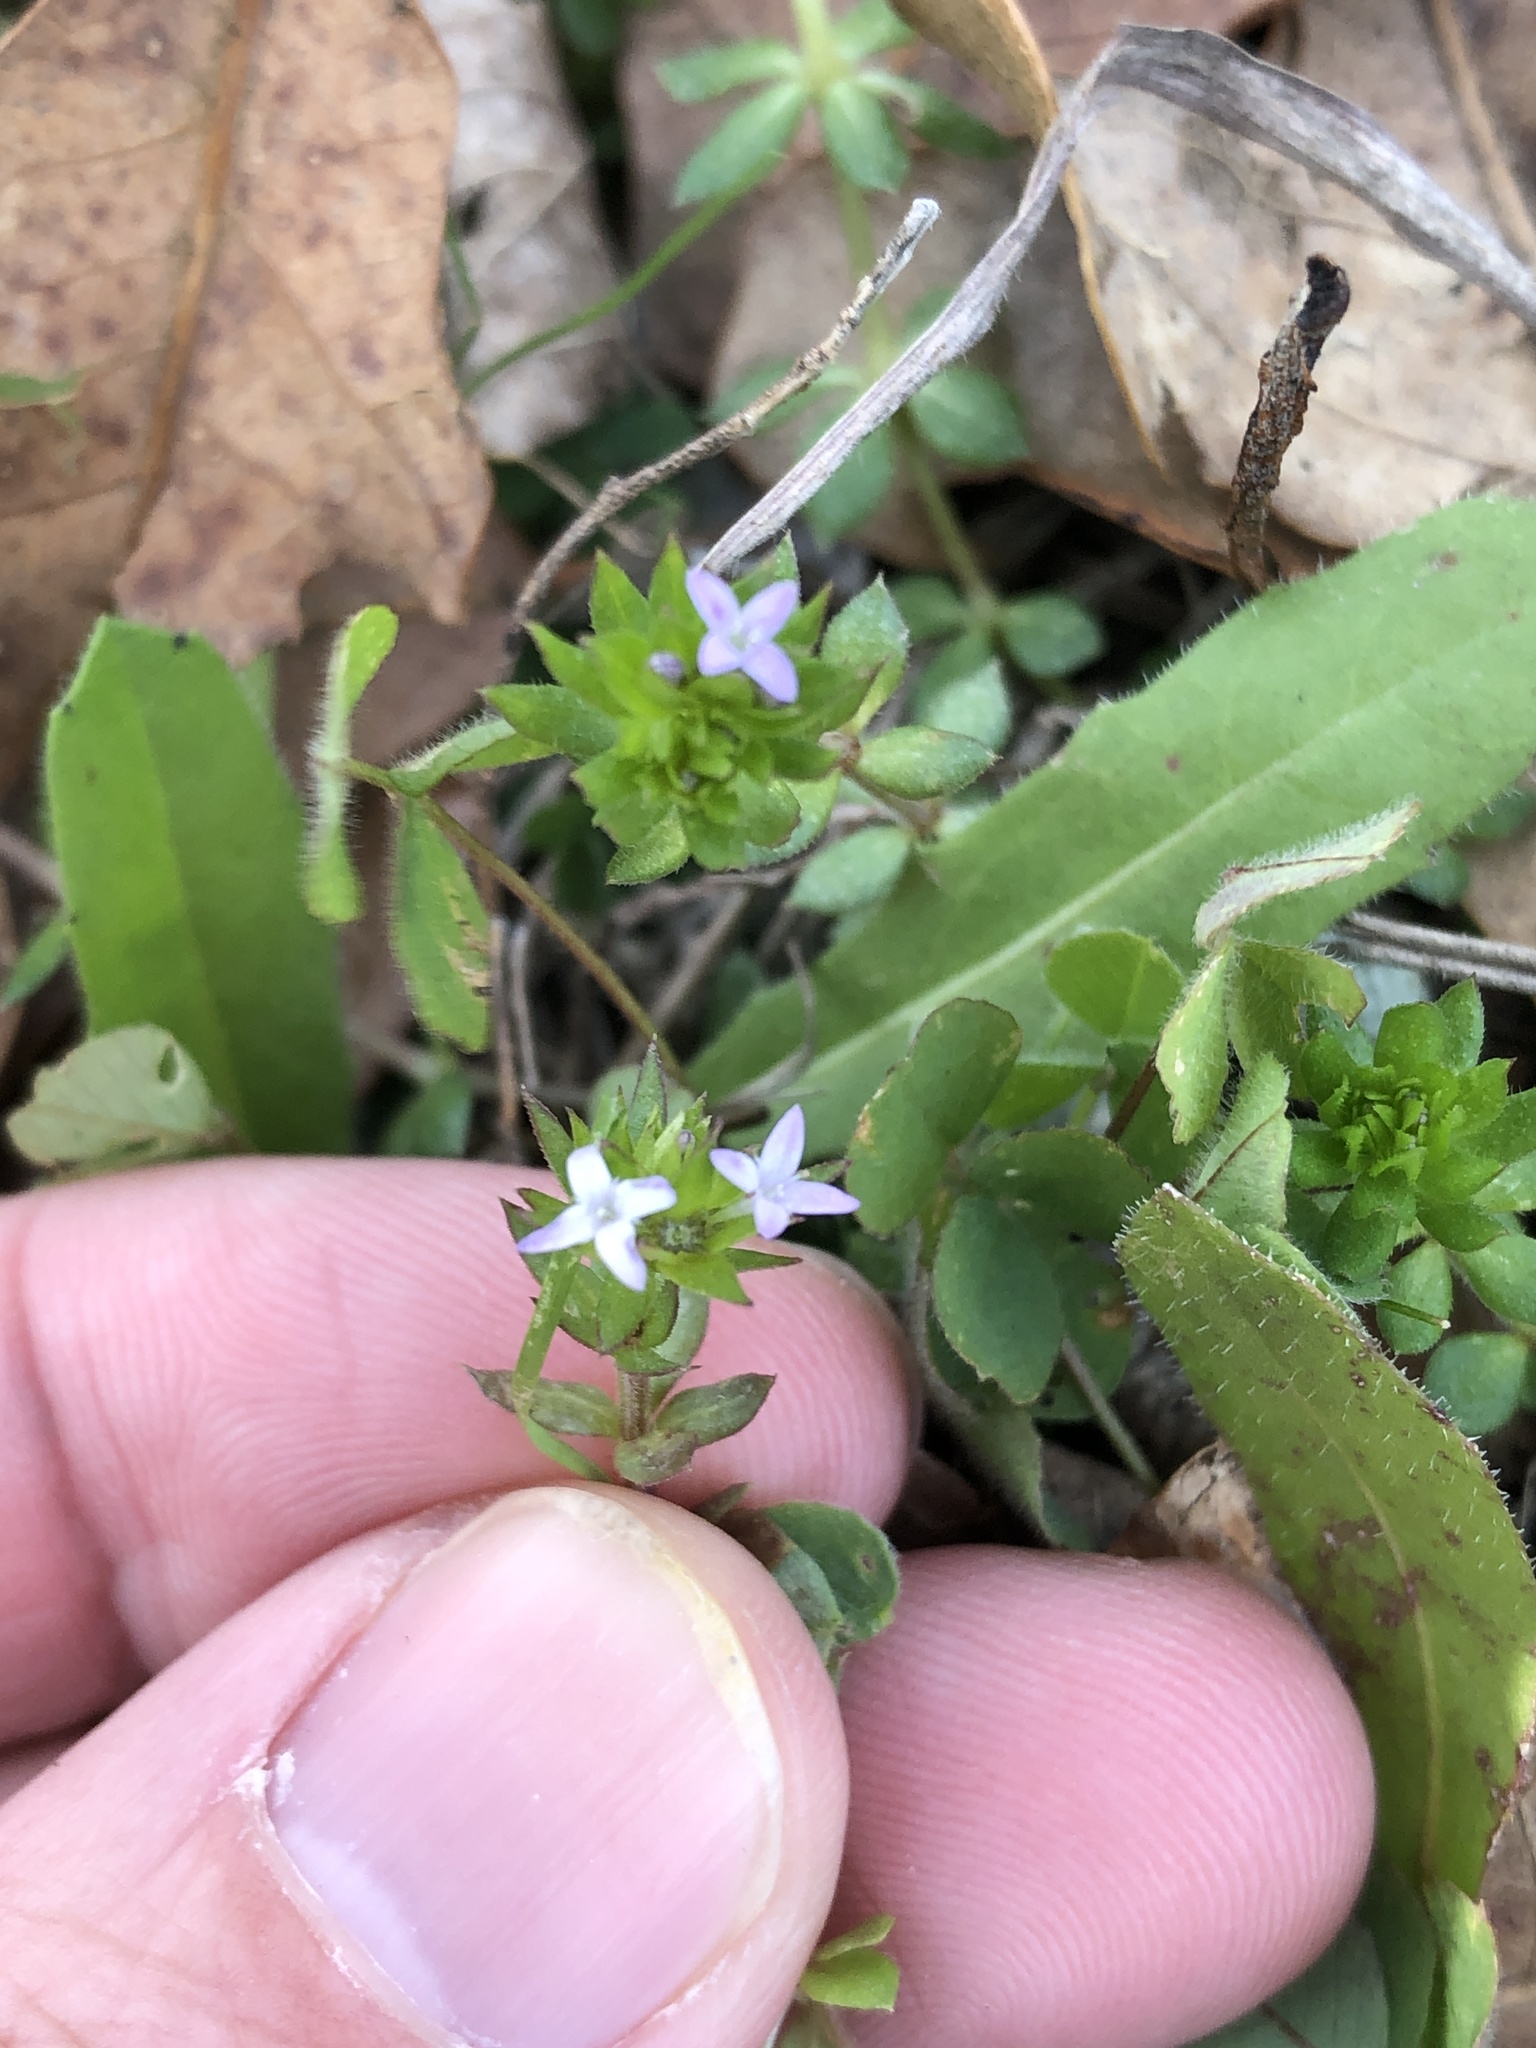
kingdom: Plantae
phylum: Tracheophyta
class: Magnoliopsida
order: Gentianales
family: Rubiaceae
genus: Sherardia
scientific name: Sherardia arvensis
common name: Field madder
